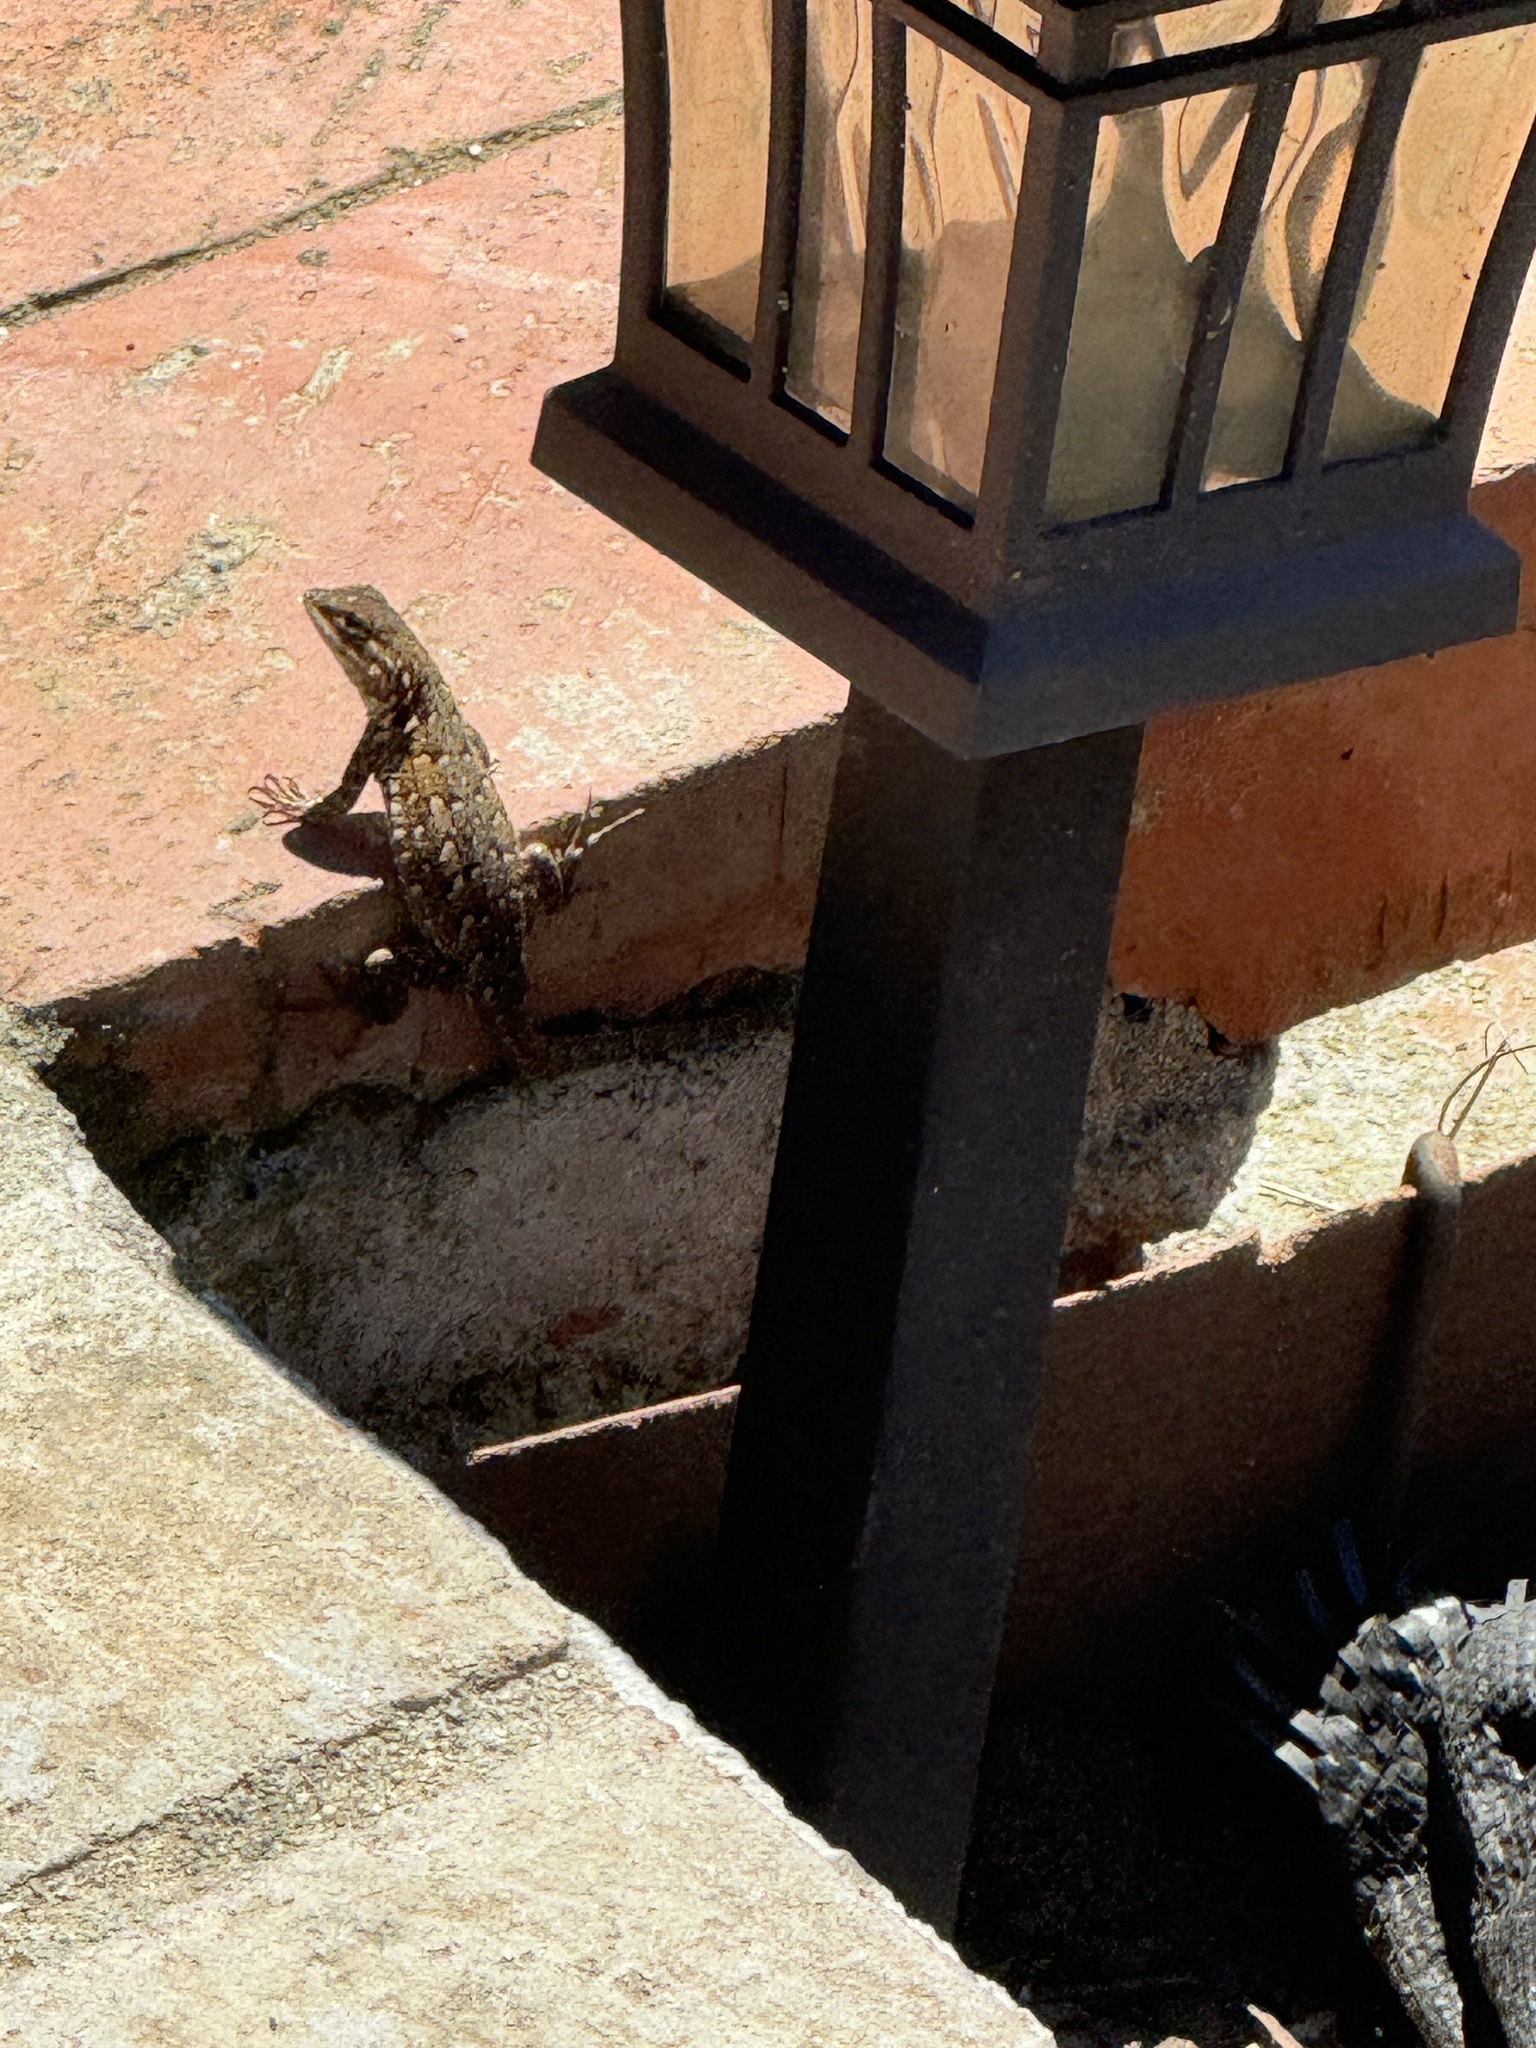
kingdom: Animalia
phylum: Chordata
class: Squamata
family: Phrynosomatidae
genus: Uta
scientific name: Uta stansburiana
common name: Side-blotched lizard
